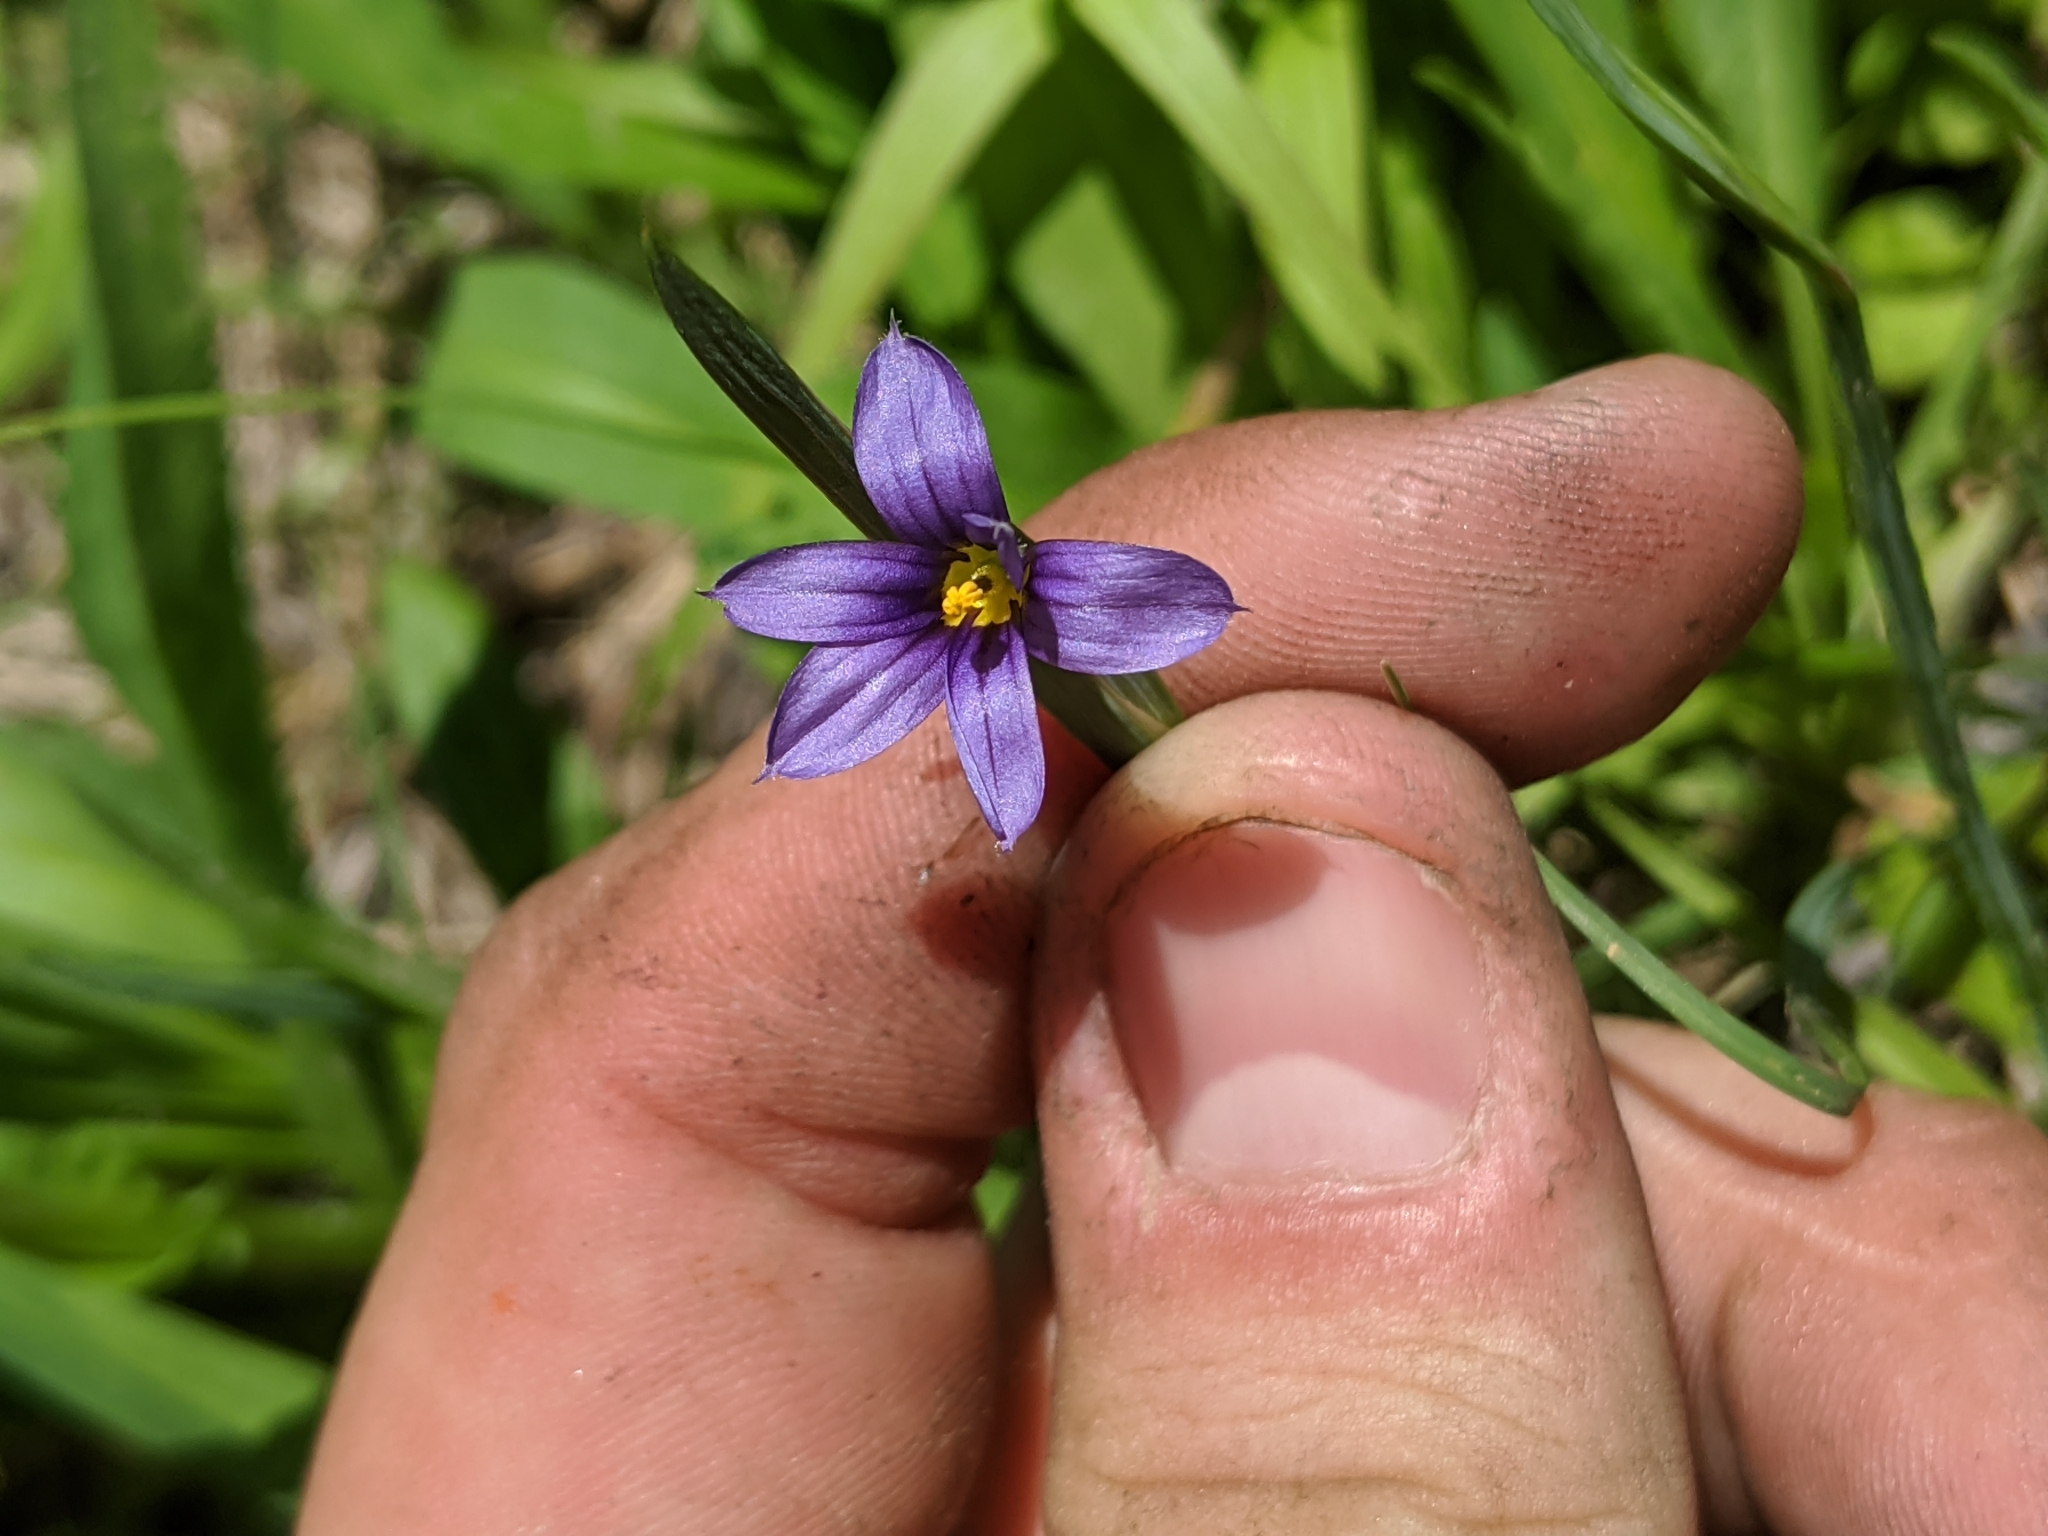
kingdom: Plantae
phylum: Tracheophyta
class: Liliopsida
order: Asparagales
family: Iridaceae
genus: Sisyrinchium
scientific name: Sisyrinchium idahoense
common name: Idaho blue-eyed-grass
